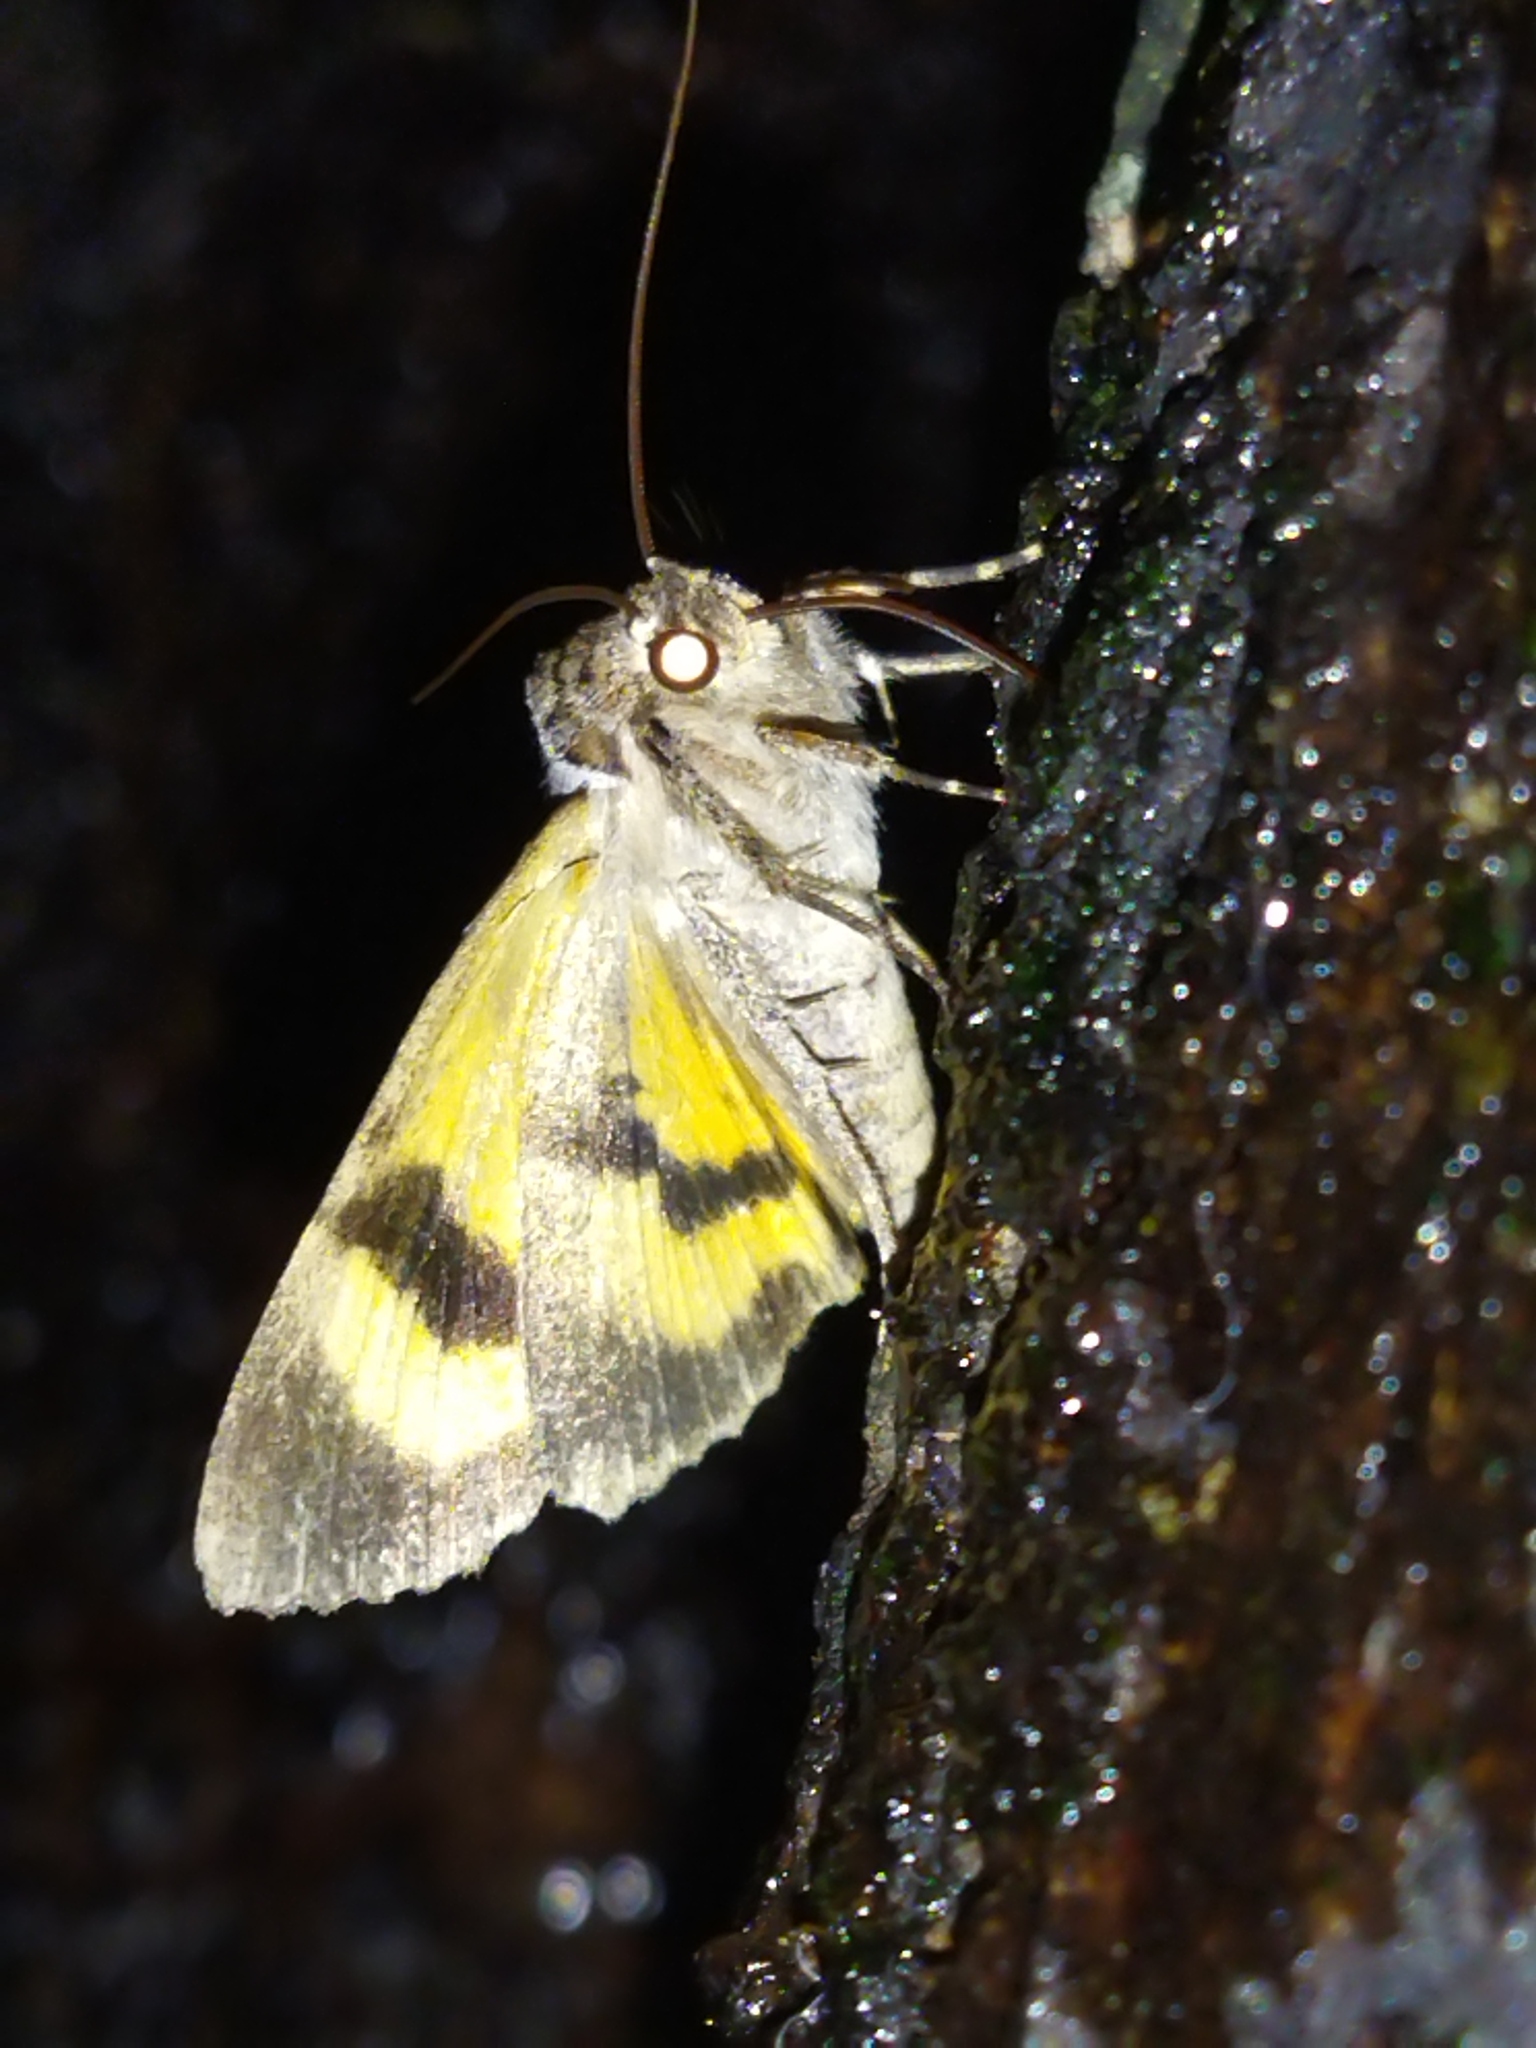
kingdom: Animalia
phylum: Arthropoda
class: Insecta
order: Lepidoptera
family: Erebidae
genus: Catocala
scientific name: Catocala hymenaea
